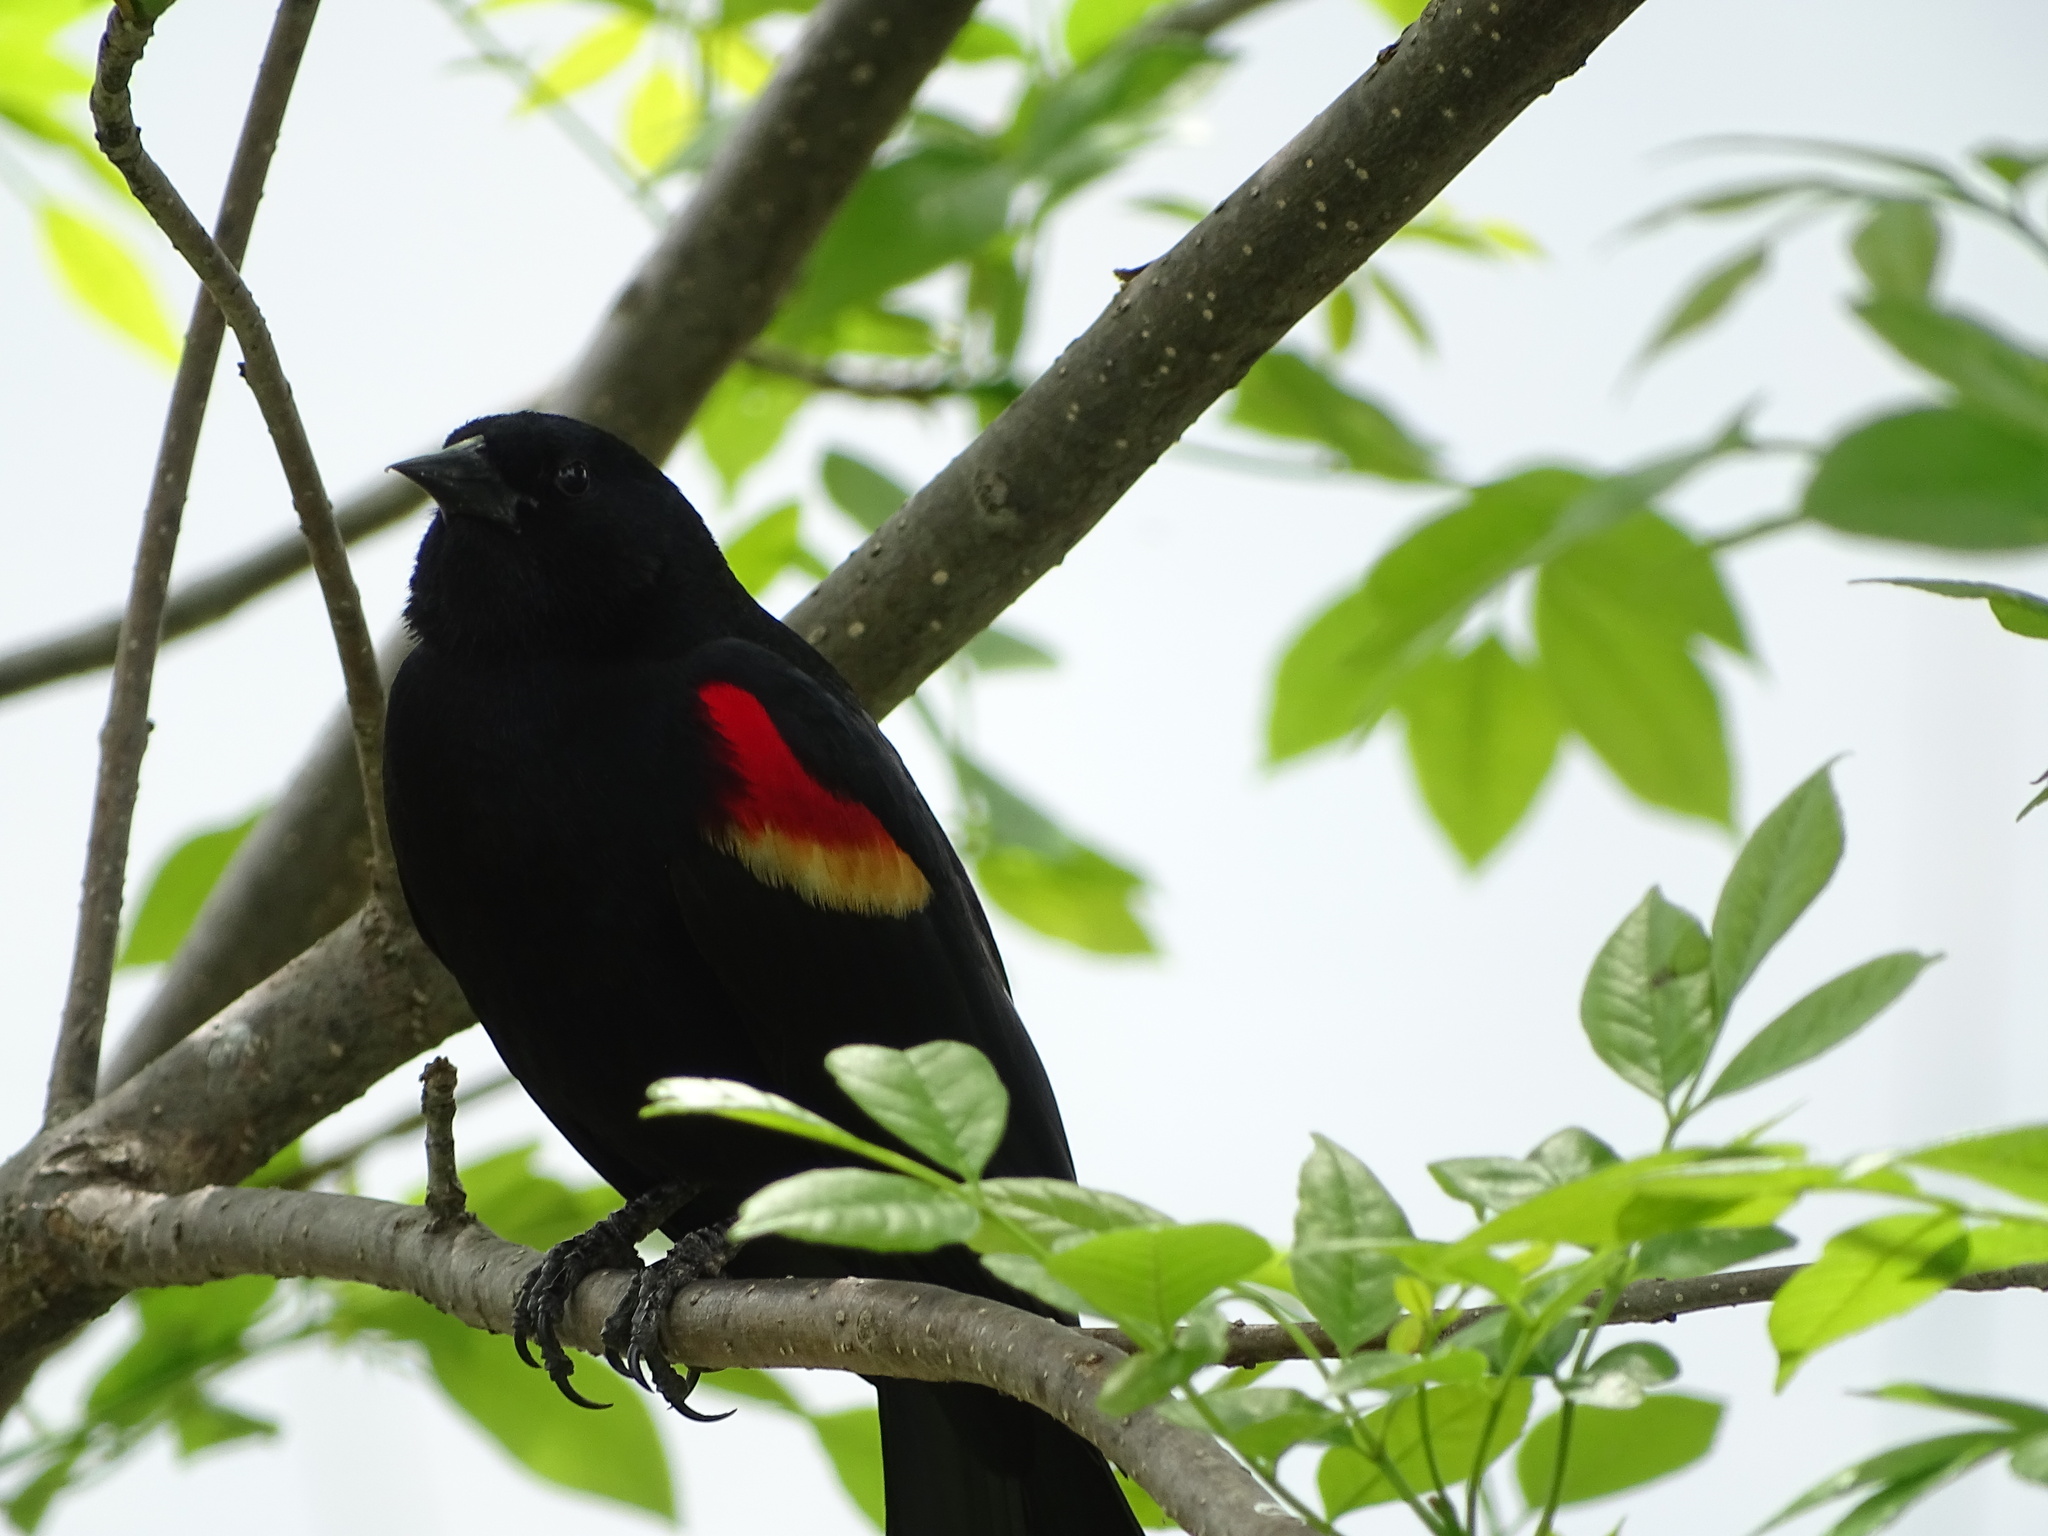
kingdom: Animalia
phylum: Chordata
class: Aves
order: Passeriformes
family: Icteridae
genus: Agelaius
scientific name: Agelaius phoeniceus
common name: Red-winged blackbird
